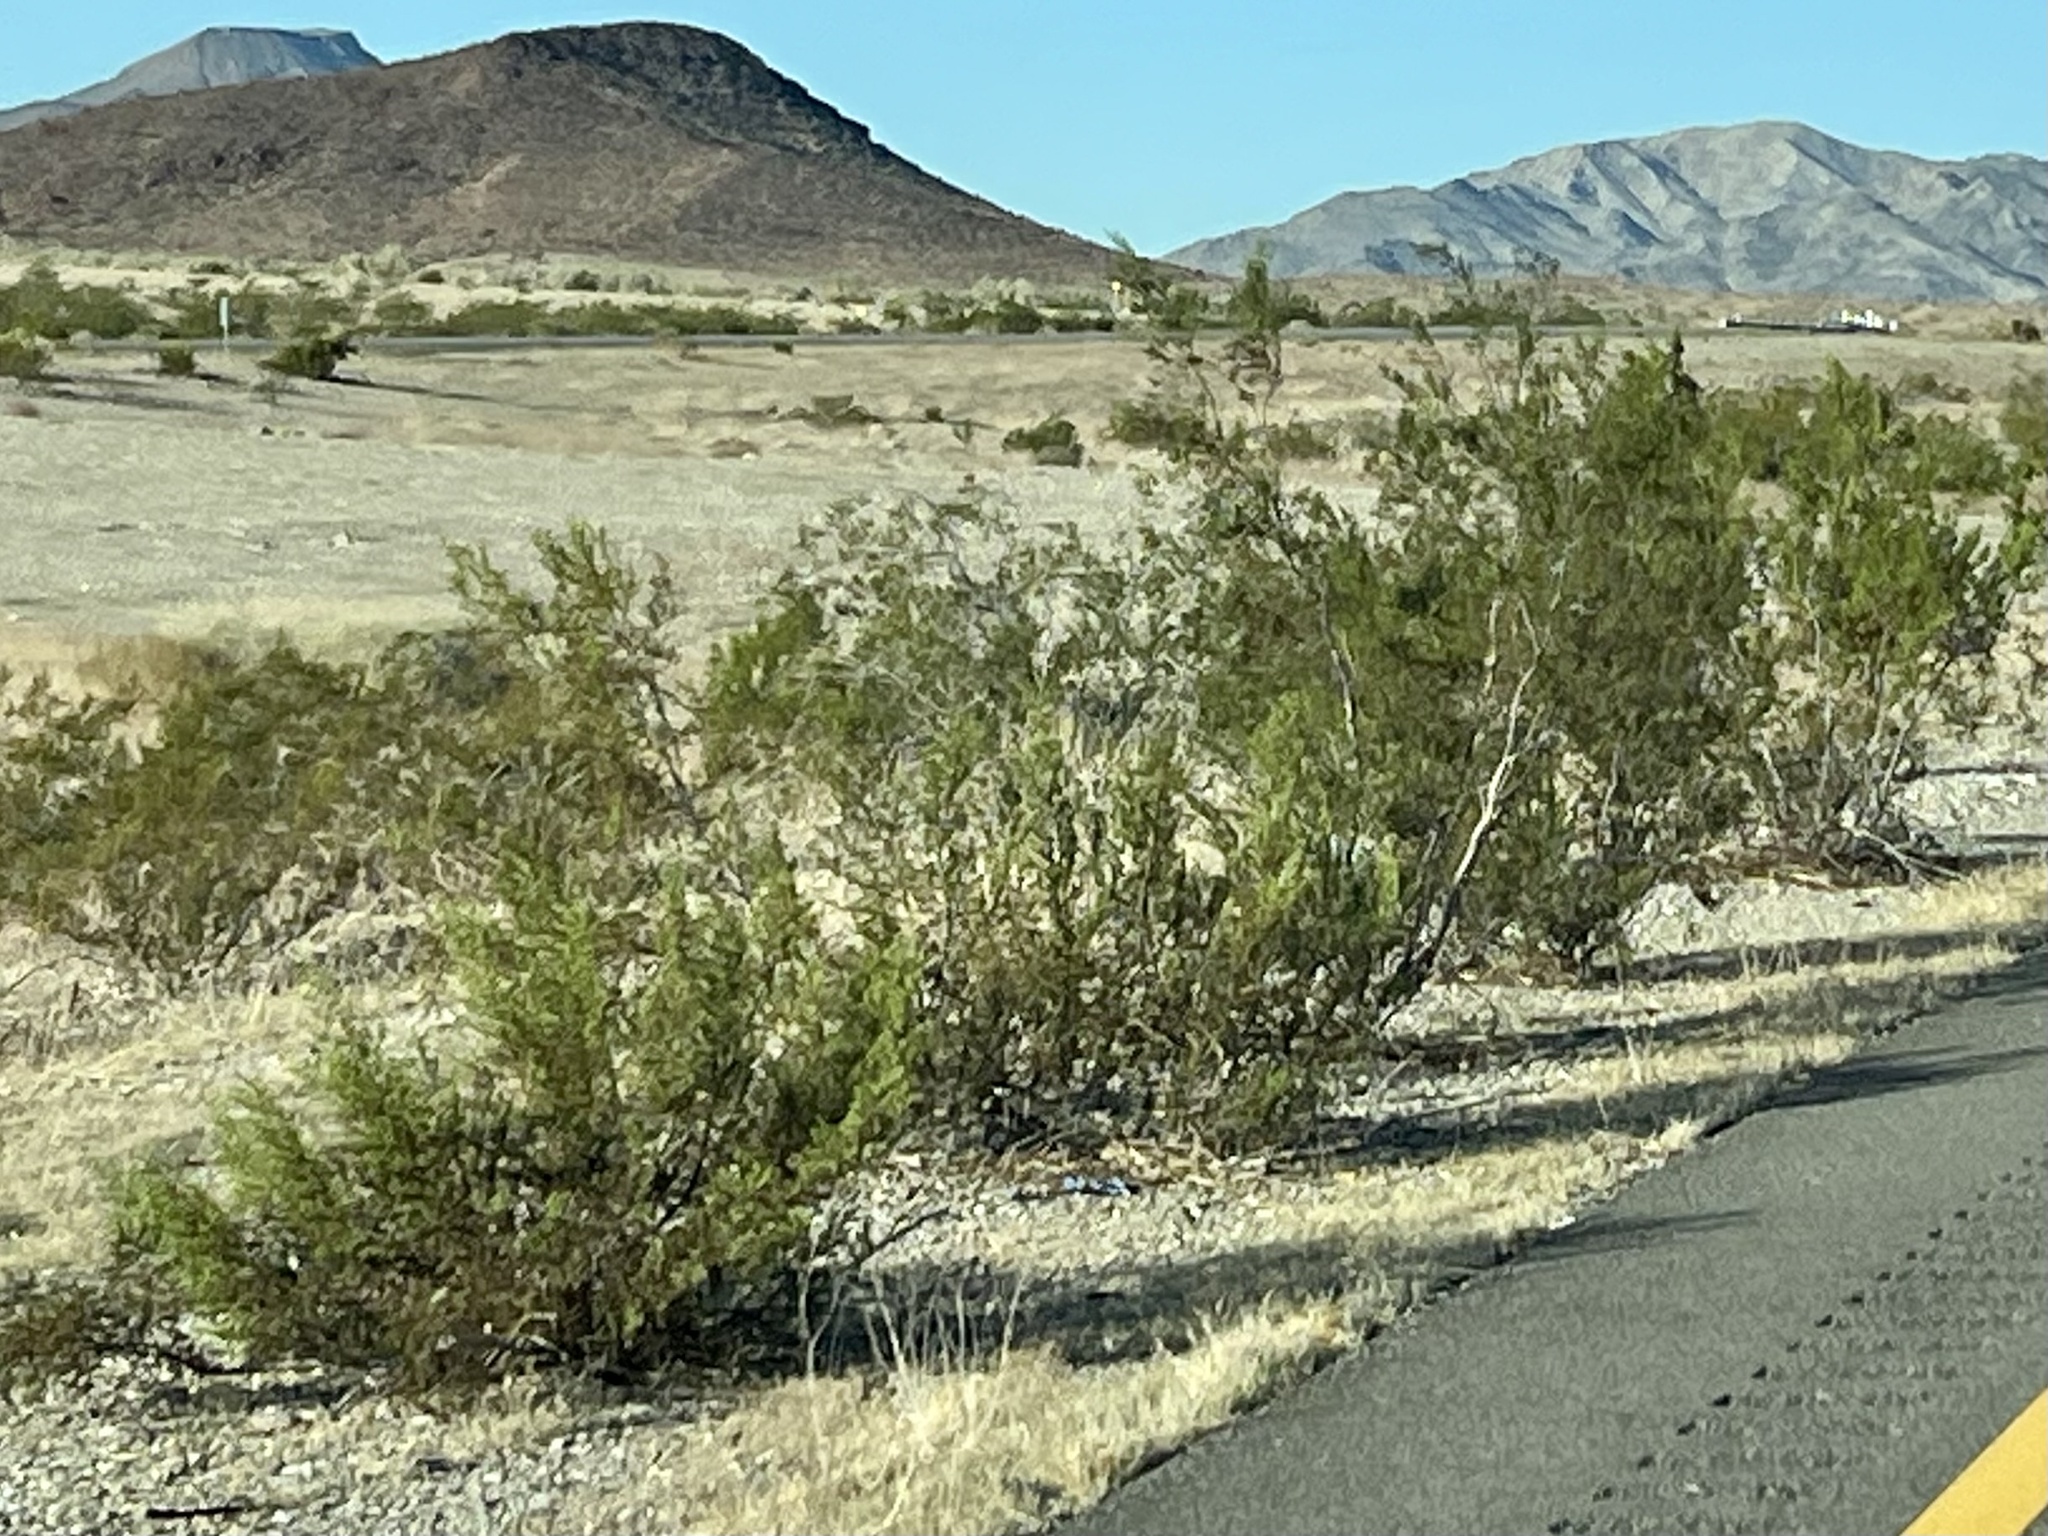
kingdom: Plantae
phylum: Tracheophyta
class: Magnoliopsida
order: Zygophyllales
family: Zygophyllaceae
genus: Larrea
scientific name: Larrea tridentata
